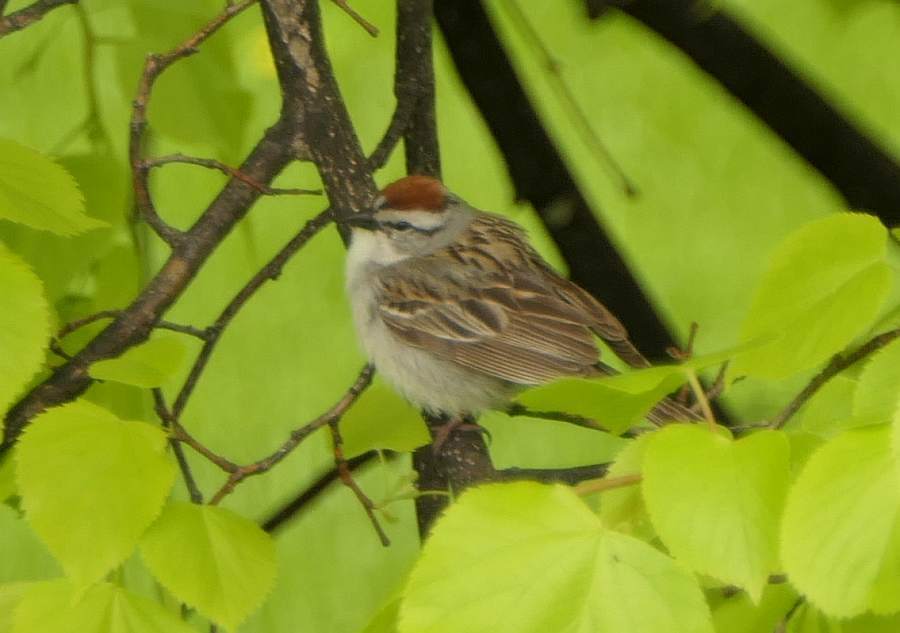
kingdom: Animalia
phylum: Chordata
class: Aves
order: Passeriformes
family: Passerellidae
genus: Spizella
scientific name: Spizella passerina
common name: Chipping sparrow
